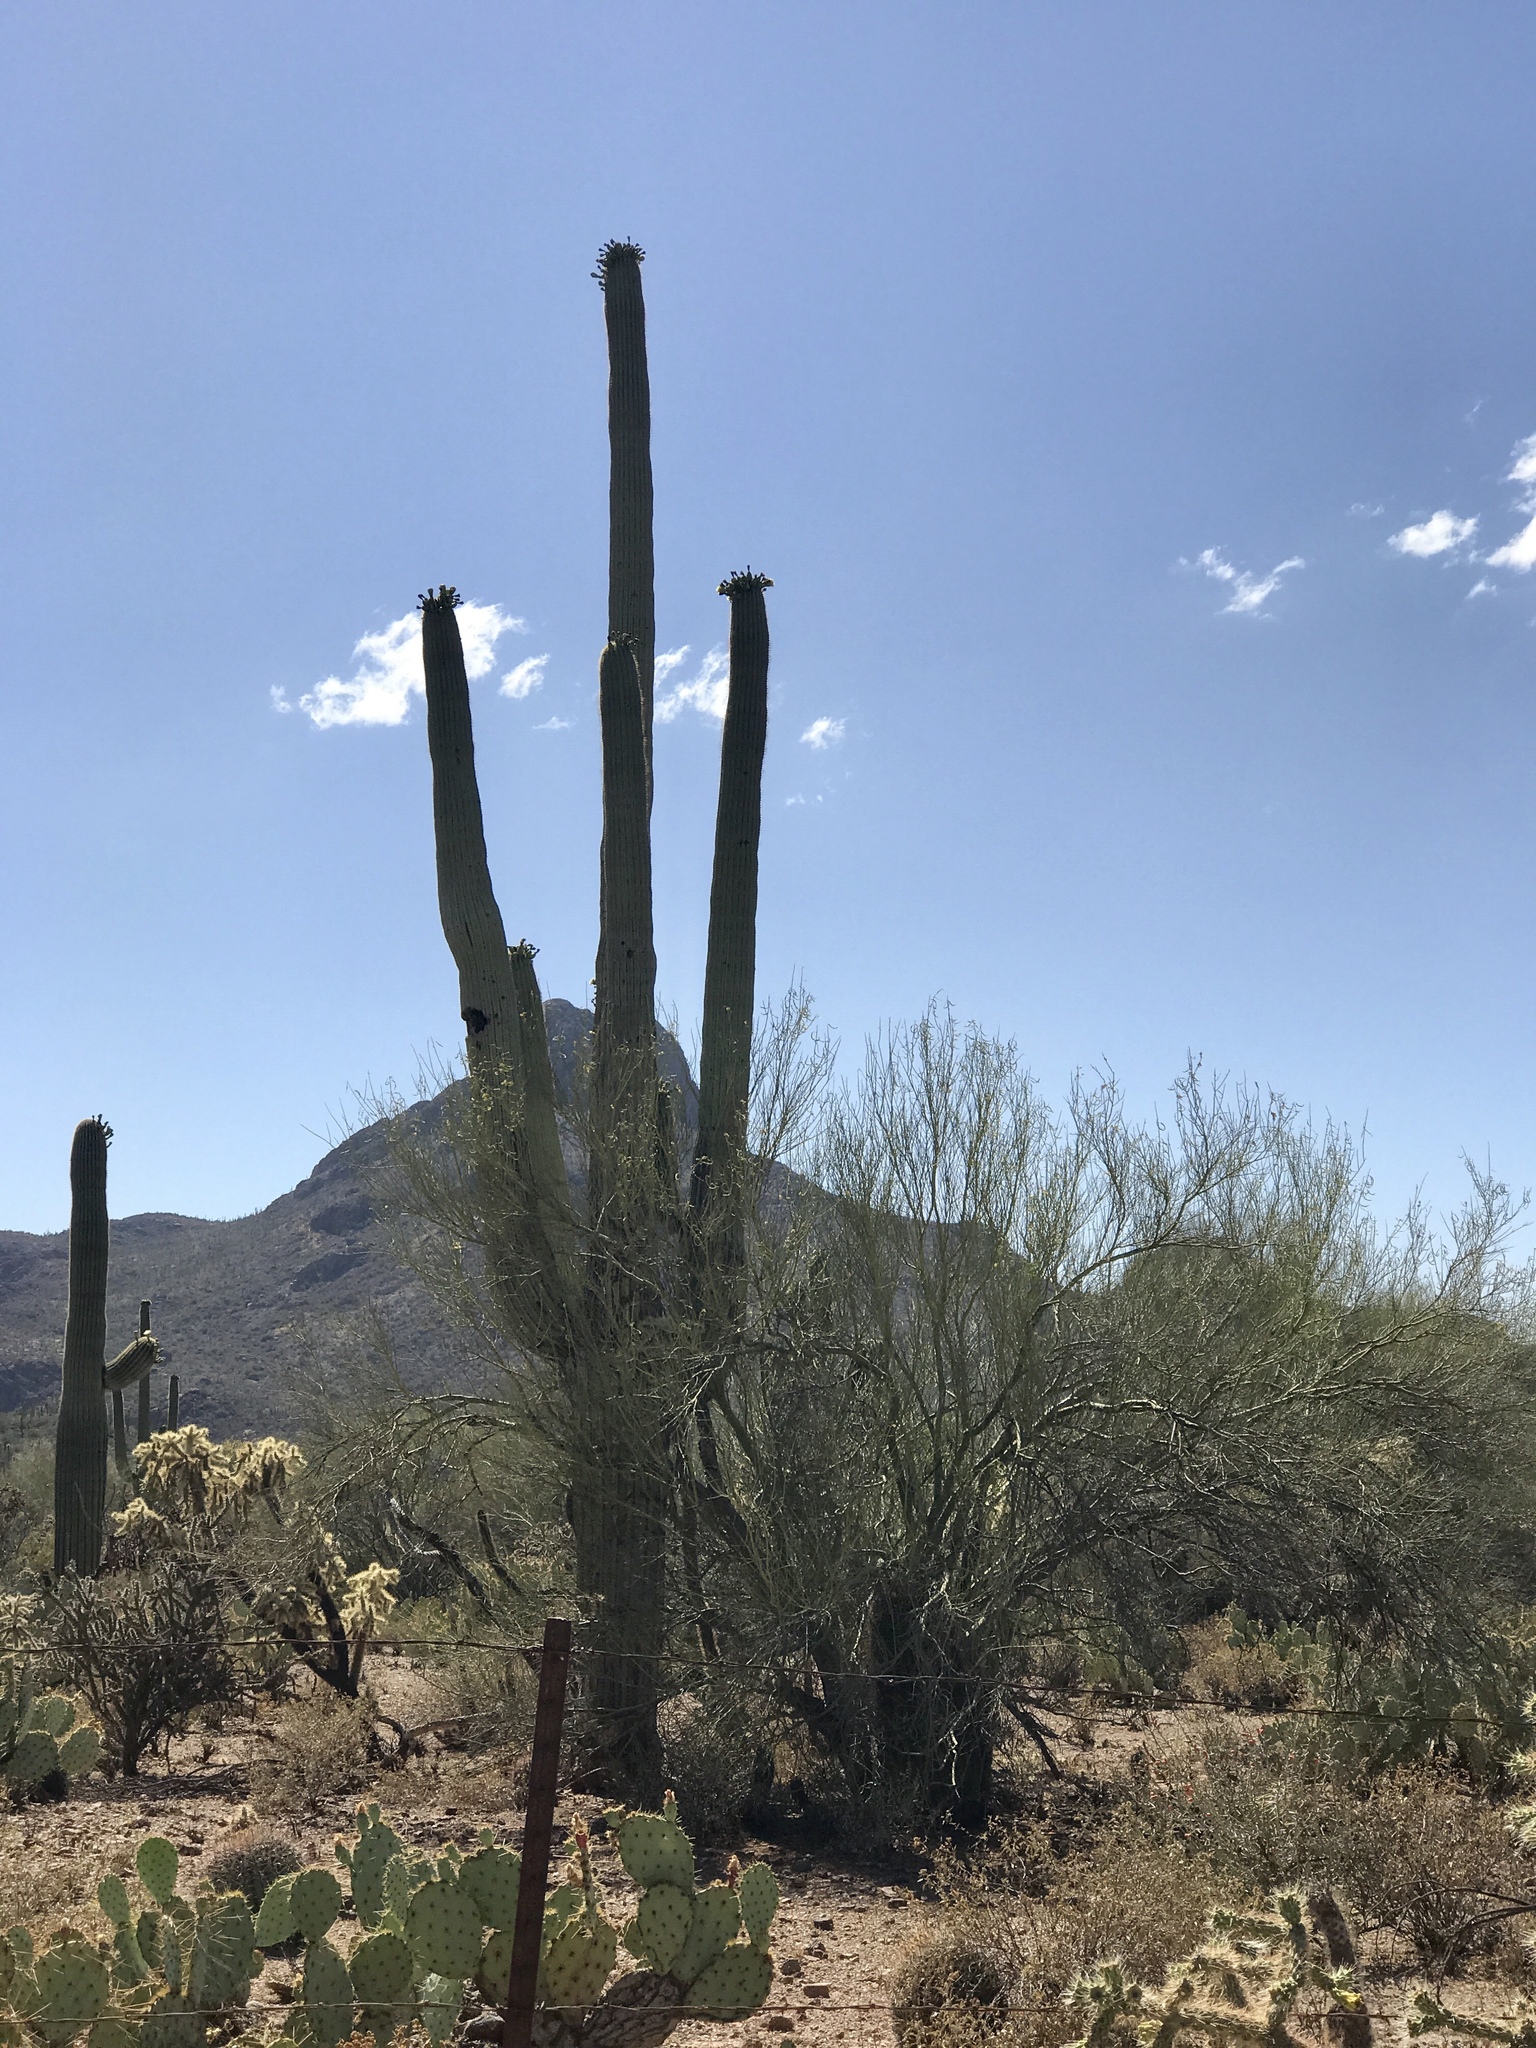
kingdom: Plantae
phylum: Tracheophyta
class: Magnoliopsida
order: Caryophyllales
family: Cactaceae
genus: Carnegiea
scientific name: Carnegiea gigantea
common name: Saguaro
